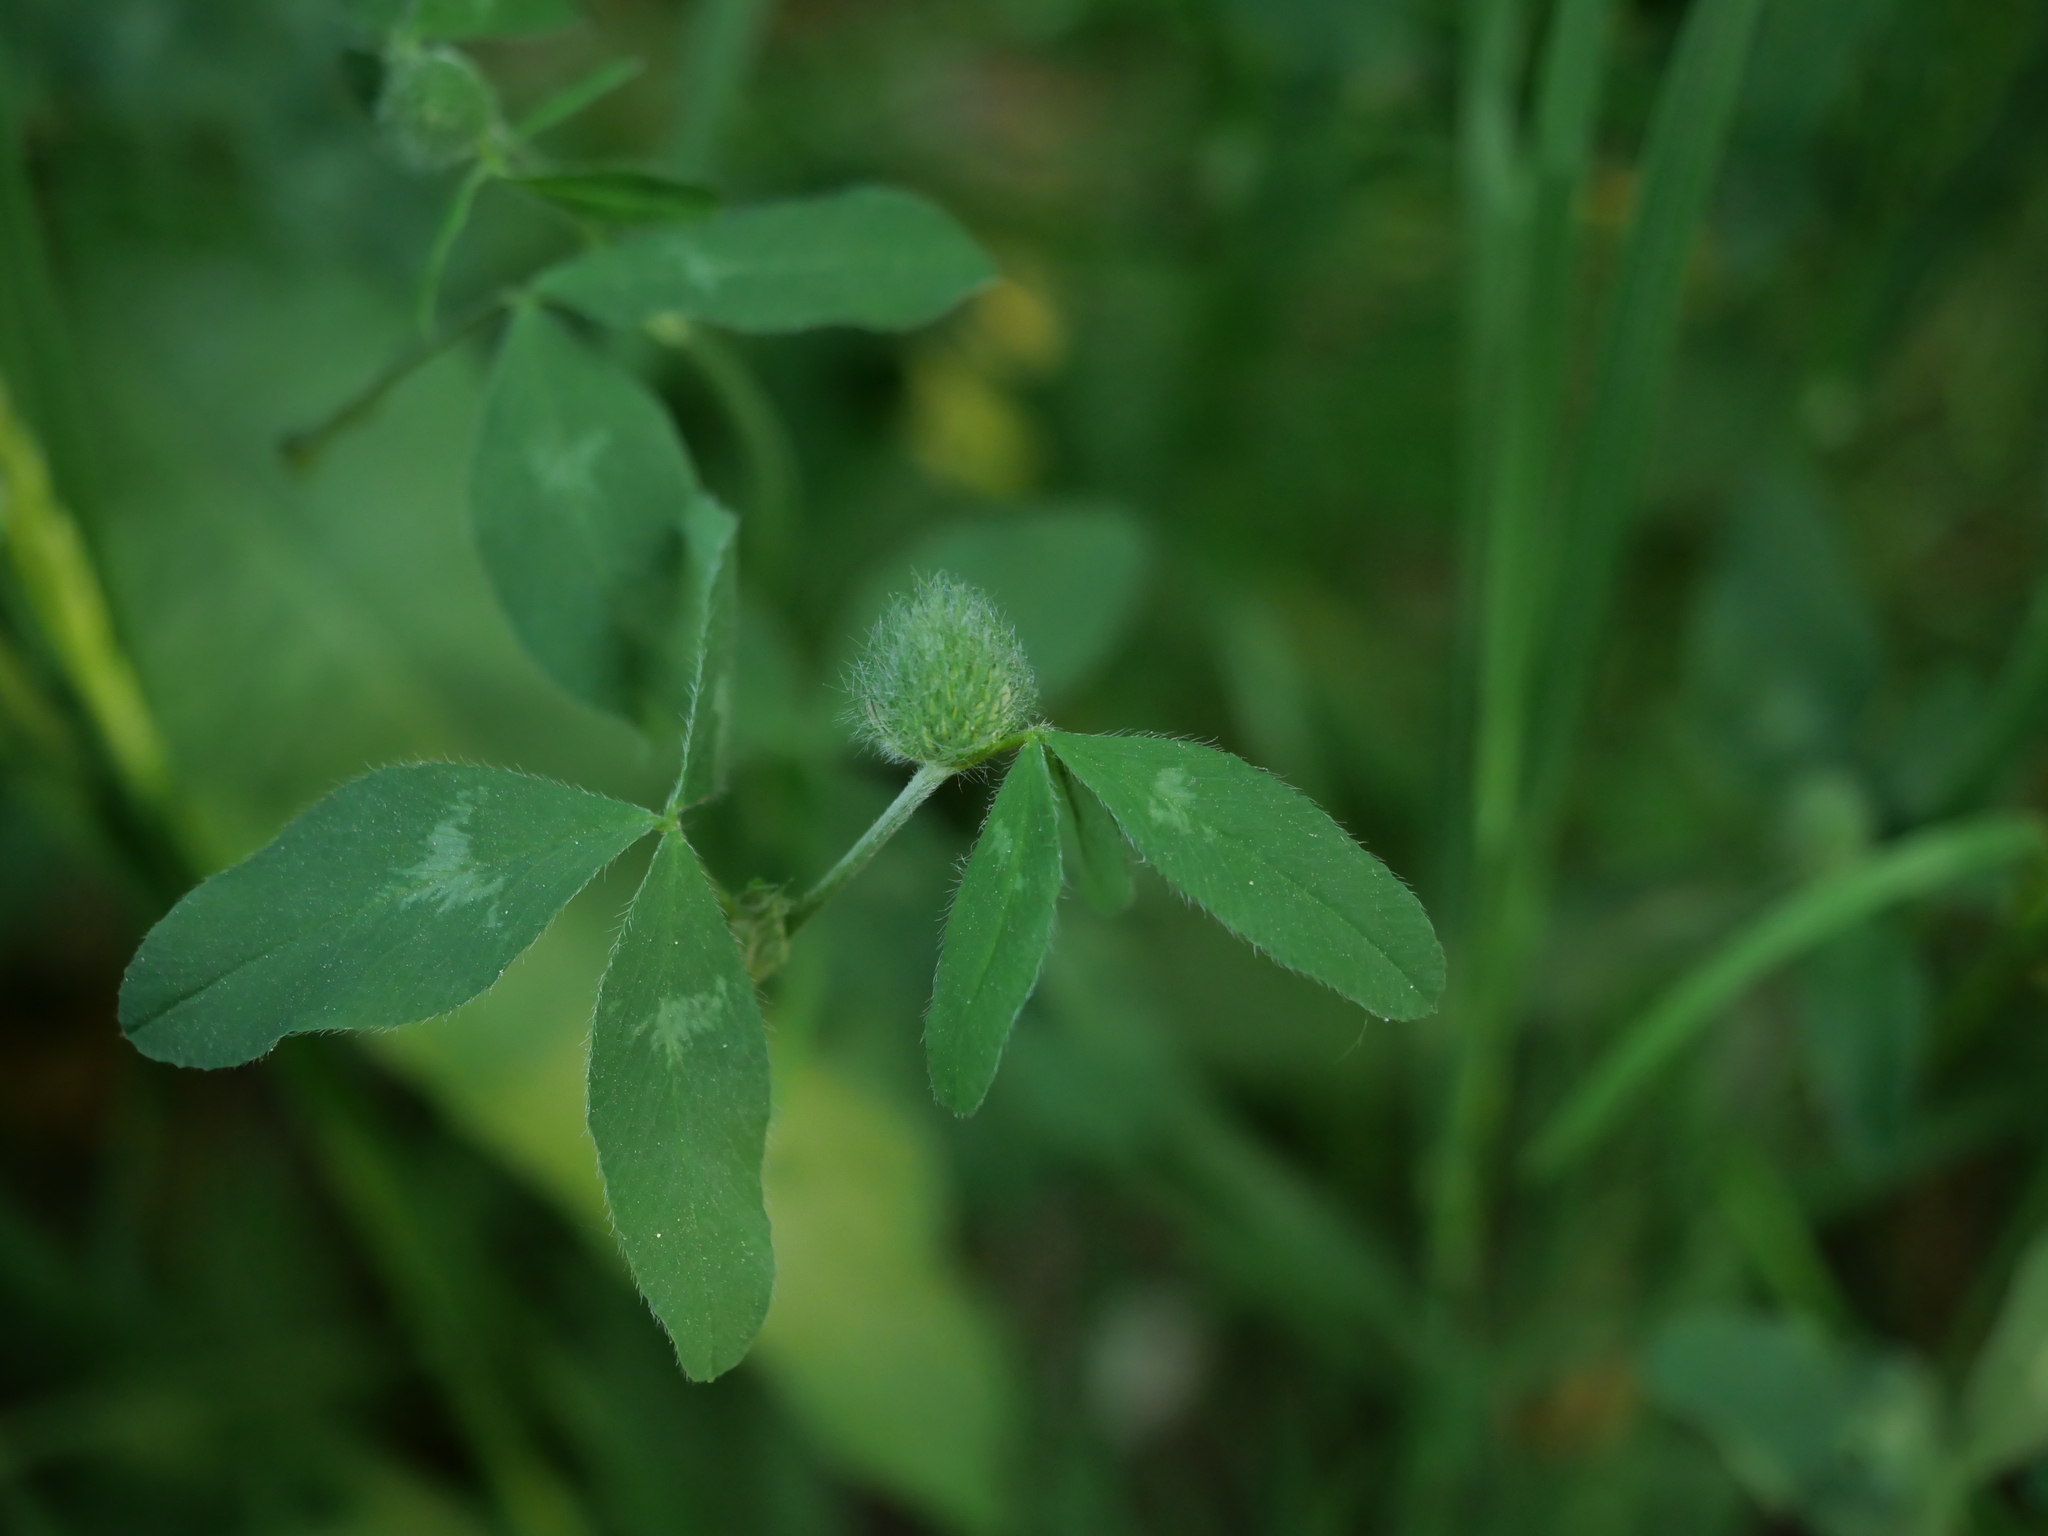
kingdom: Plantae
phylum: Tracheophyta
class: Magnoliopsida
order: Fabales
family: Fabaceae
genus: Trifolium
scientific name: Trifolium pratense
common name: Red clover
